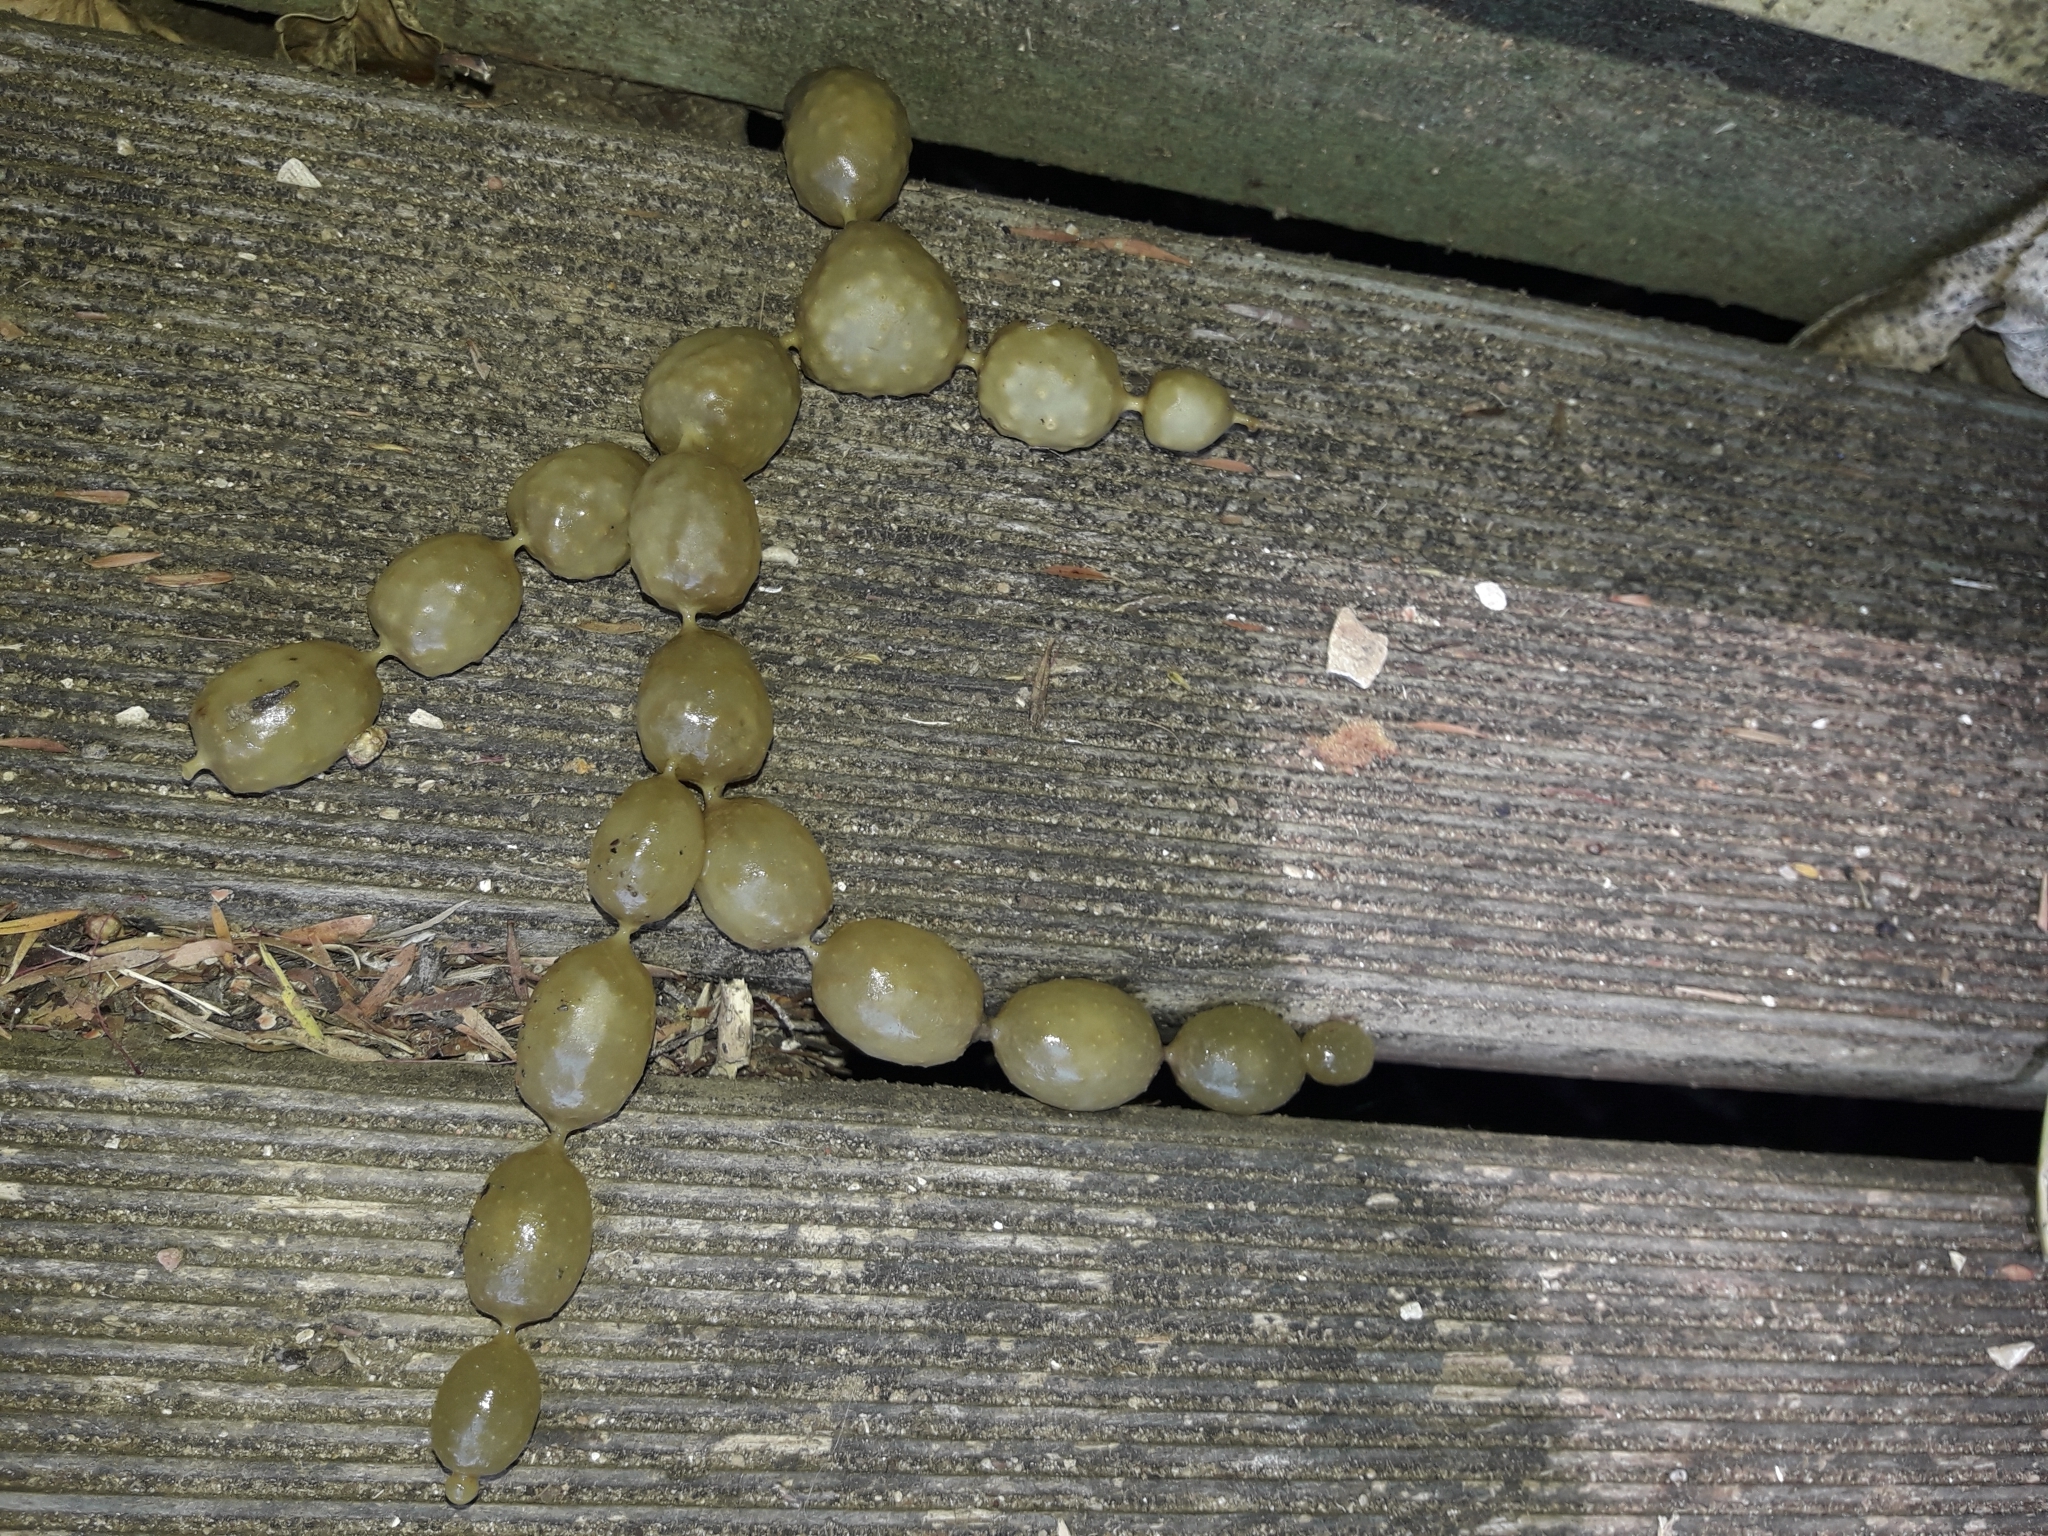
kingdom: Chromista
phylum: Ochrophyta
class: Phaeophyceae
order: Fucales
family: Hormosiraceae
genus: Hormosira
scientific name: Hormosira banksii
